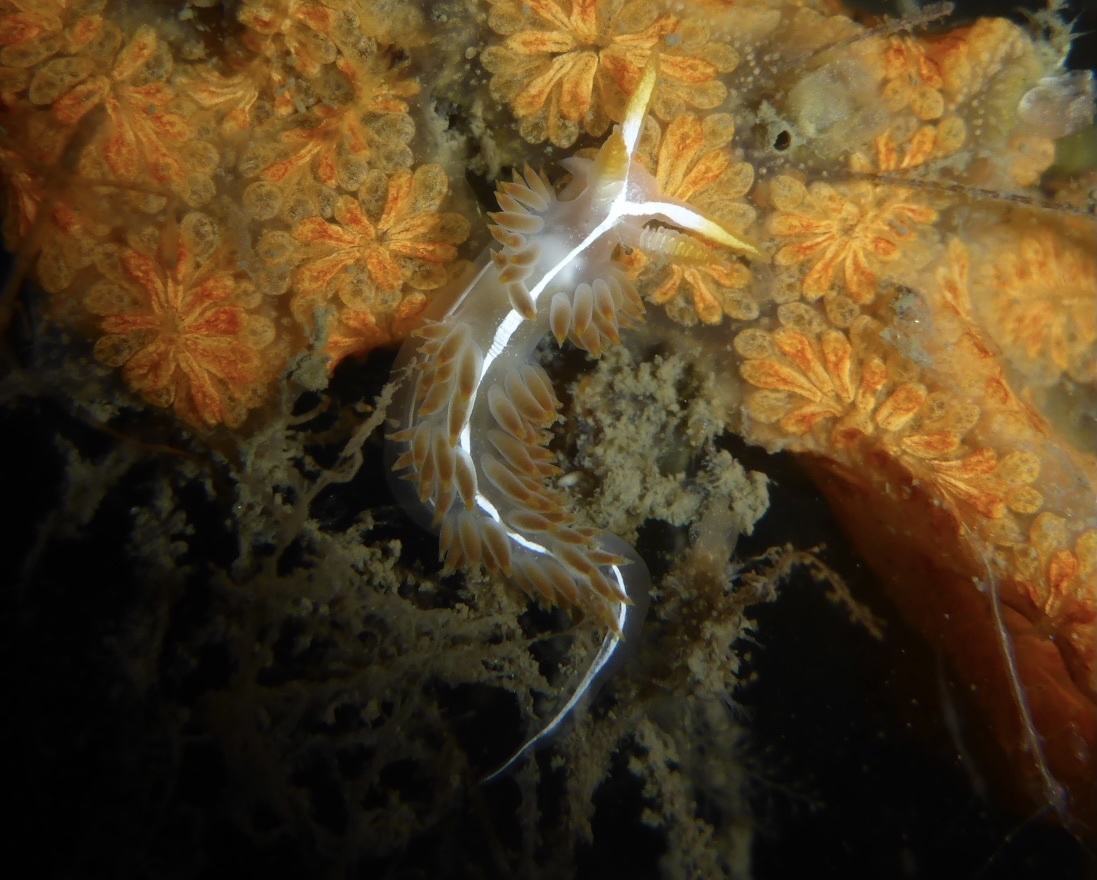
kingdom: Animalia
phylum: Mollusca
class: Gastropoda
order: Nudibranchia
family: Coryphellidae
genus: Coryphella
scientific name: Coryphella trilineata
